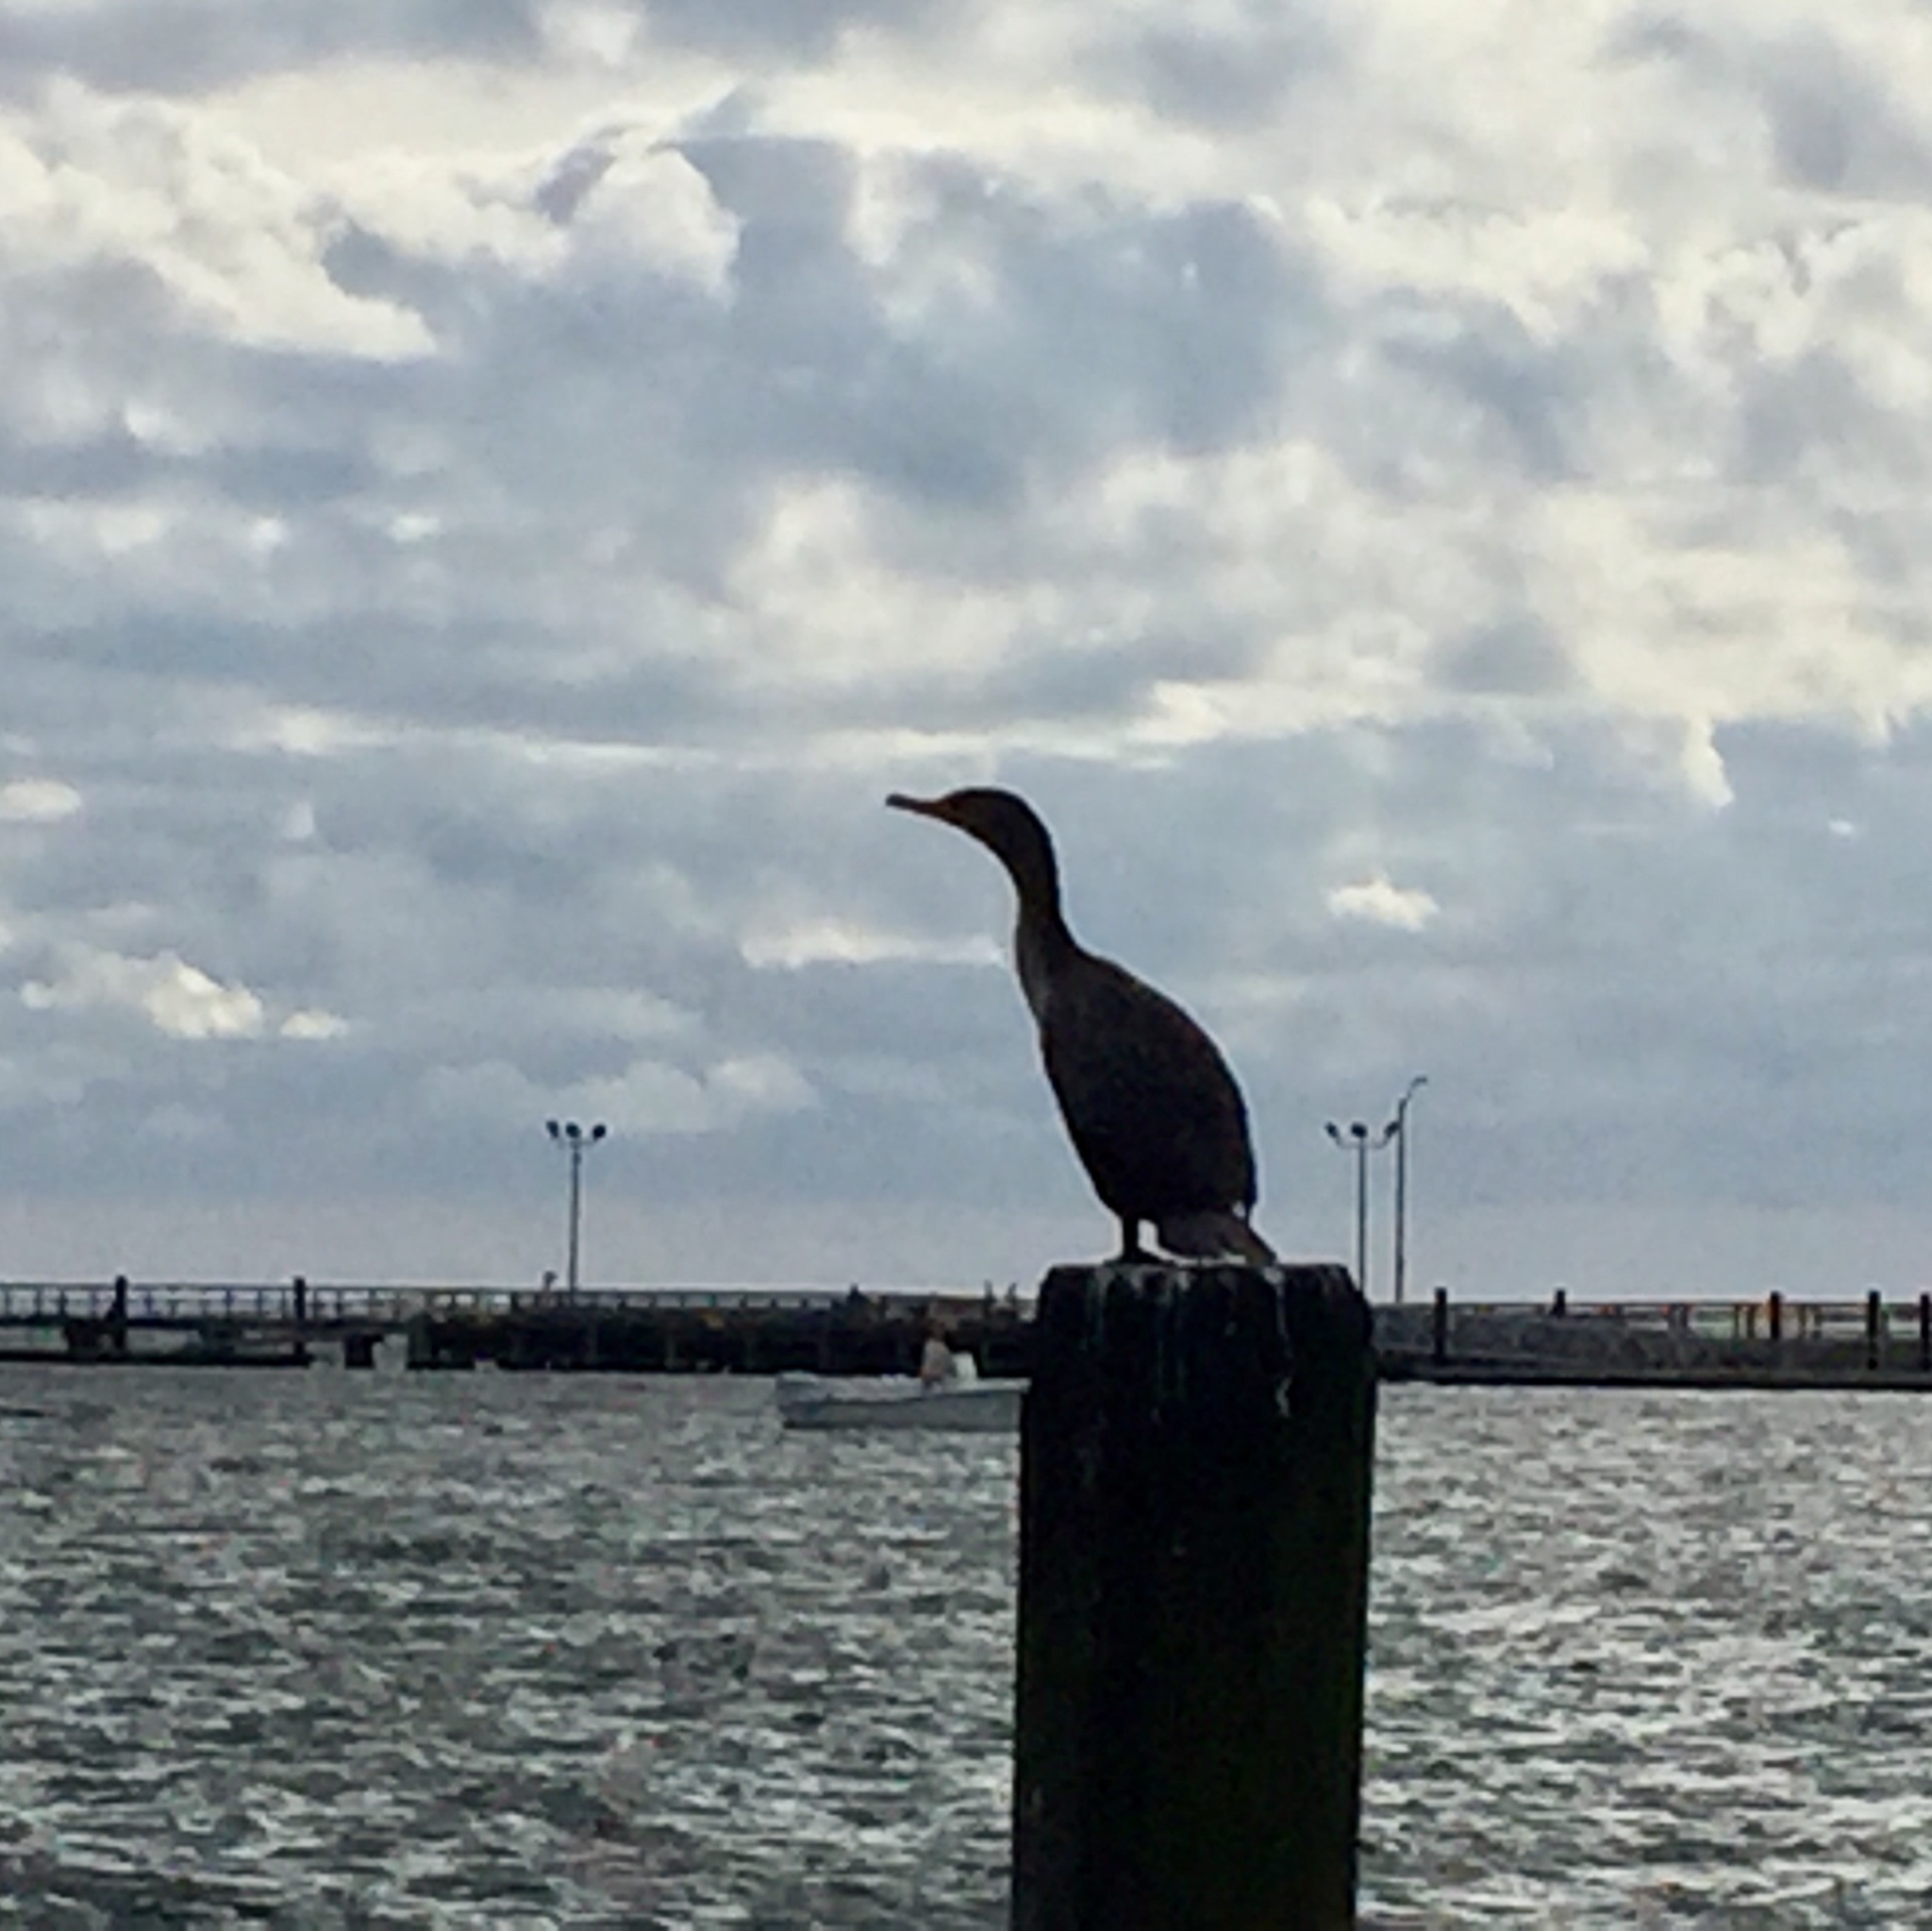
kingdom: Animalia
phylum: Chordata
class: Aves
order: Suliformes
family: Phalacrocoracidae
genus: Phalacrocorax
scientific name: Phalacrocorax auritus
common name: Double-crested cormorant
